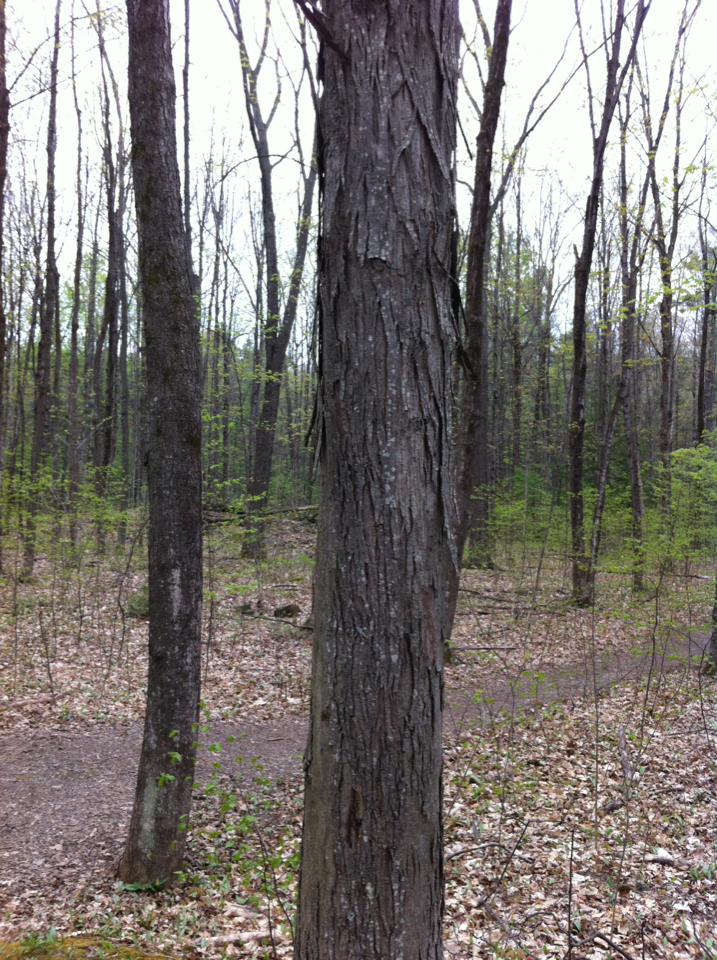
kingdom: Plantae
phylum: Tracheophyta
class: Magnoliopsida
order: Fagales
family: Juglandaceae
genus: Carya
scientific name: Carya ovata
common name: Shagbark hickory
